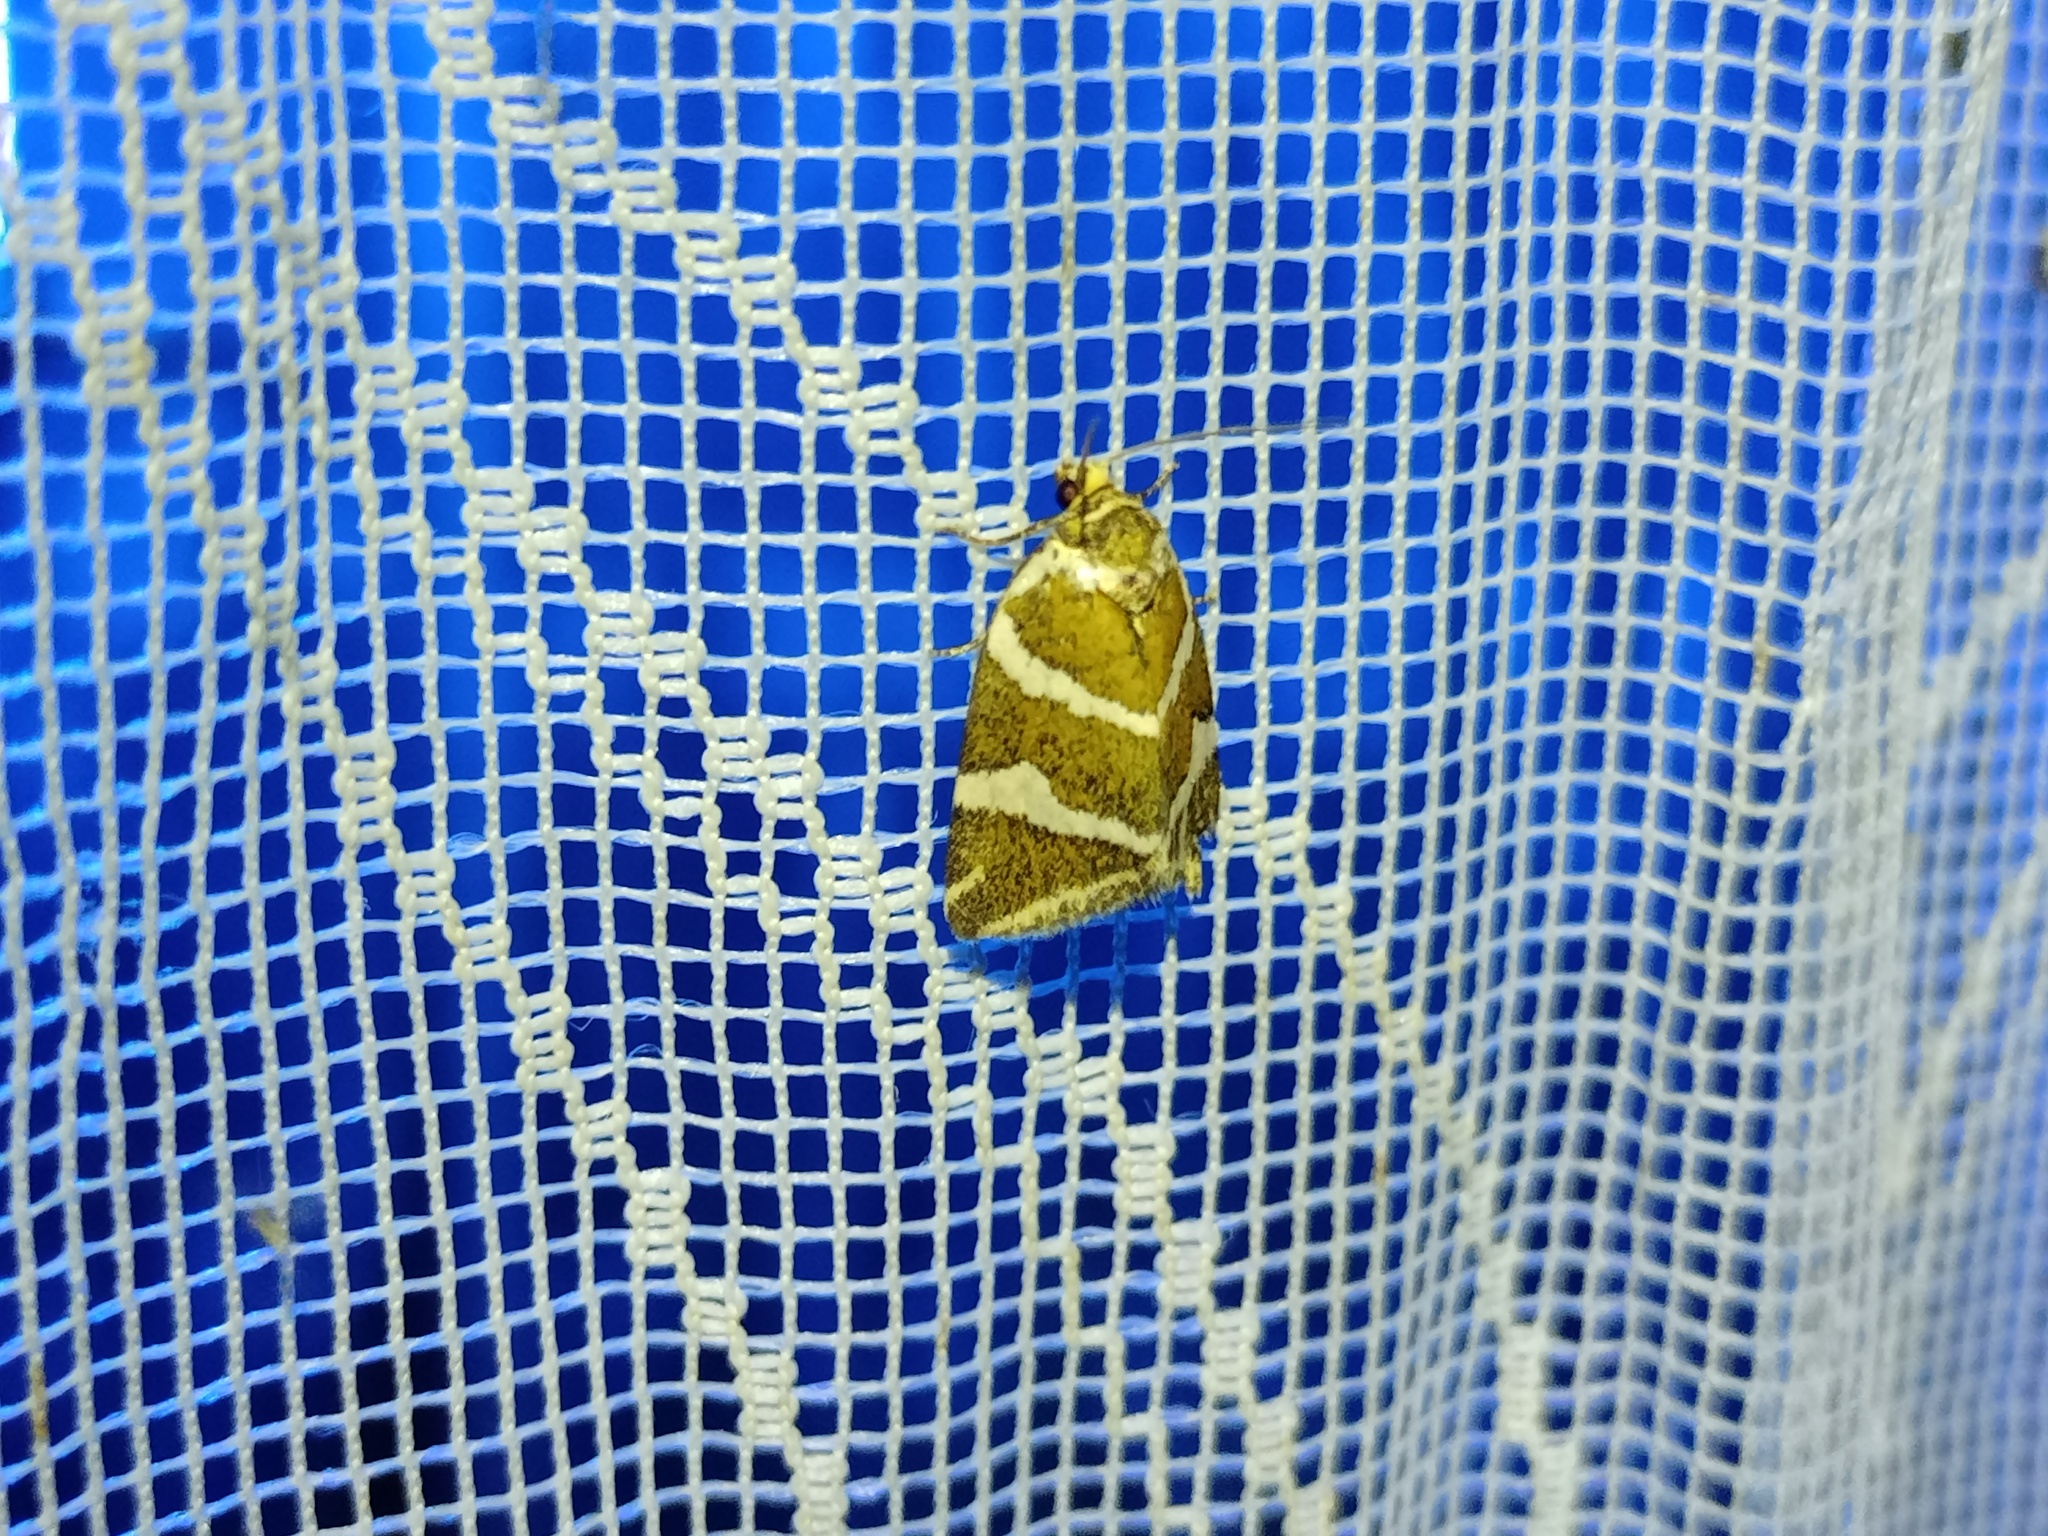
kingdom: Animalia
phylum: Arthropoda
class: Insecta
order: Lepidoptera
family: Noctuidae
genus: Deltote
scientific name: Deltote bankiana
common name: Silver barred
